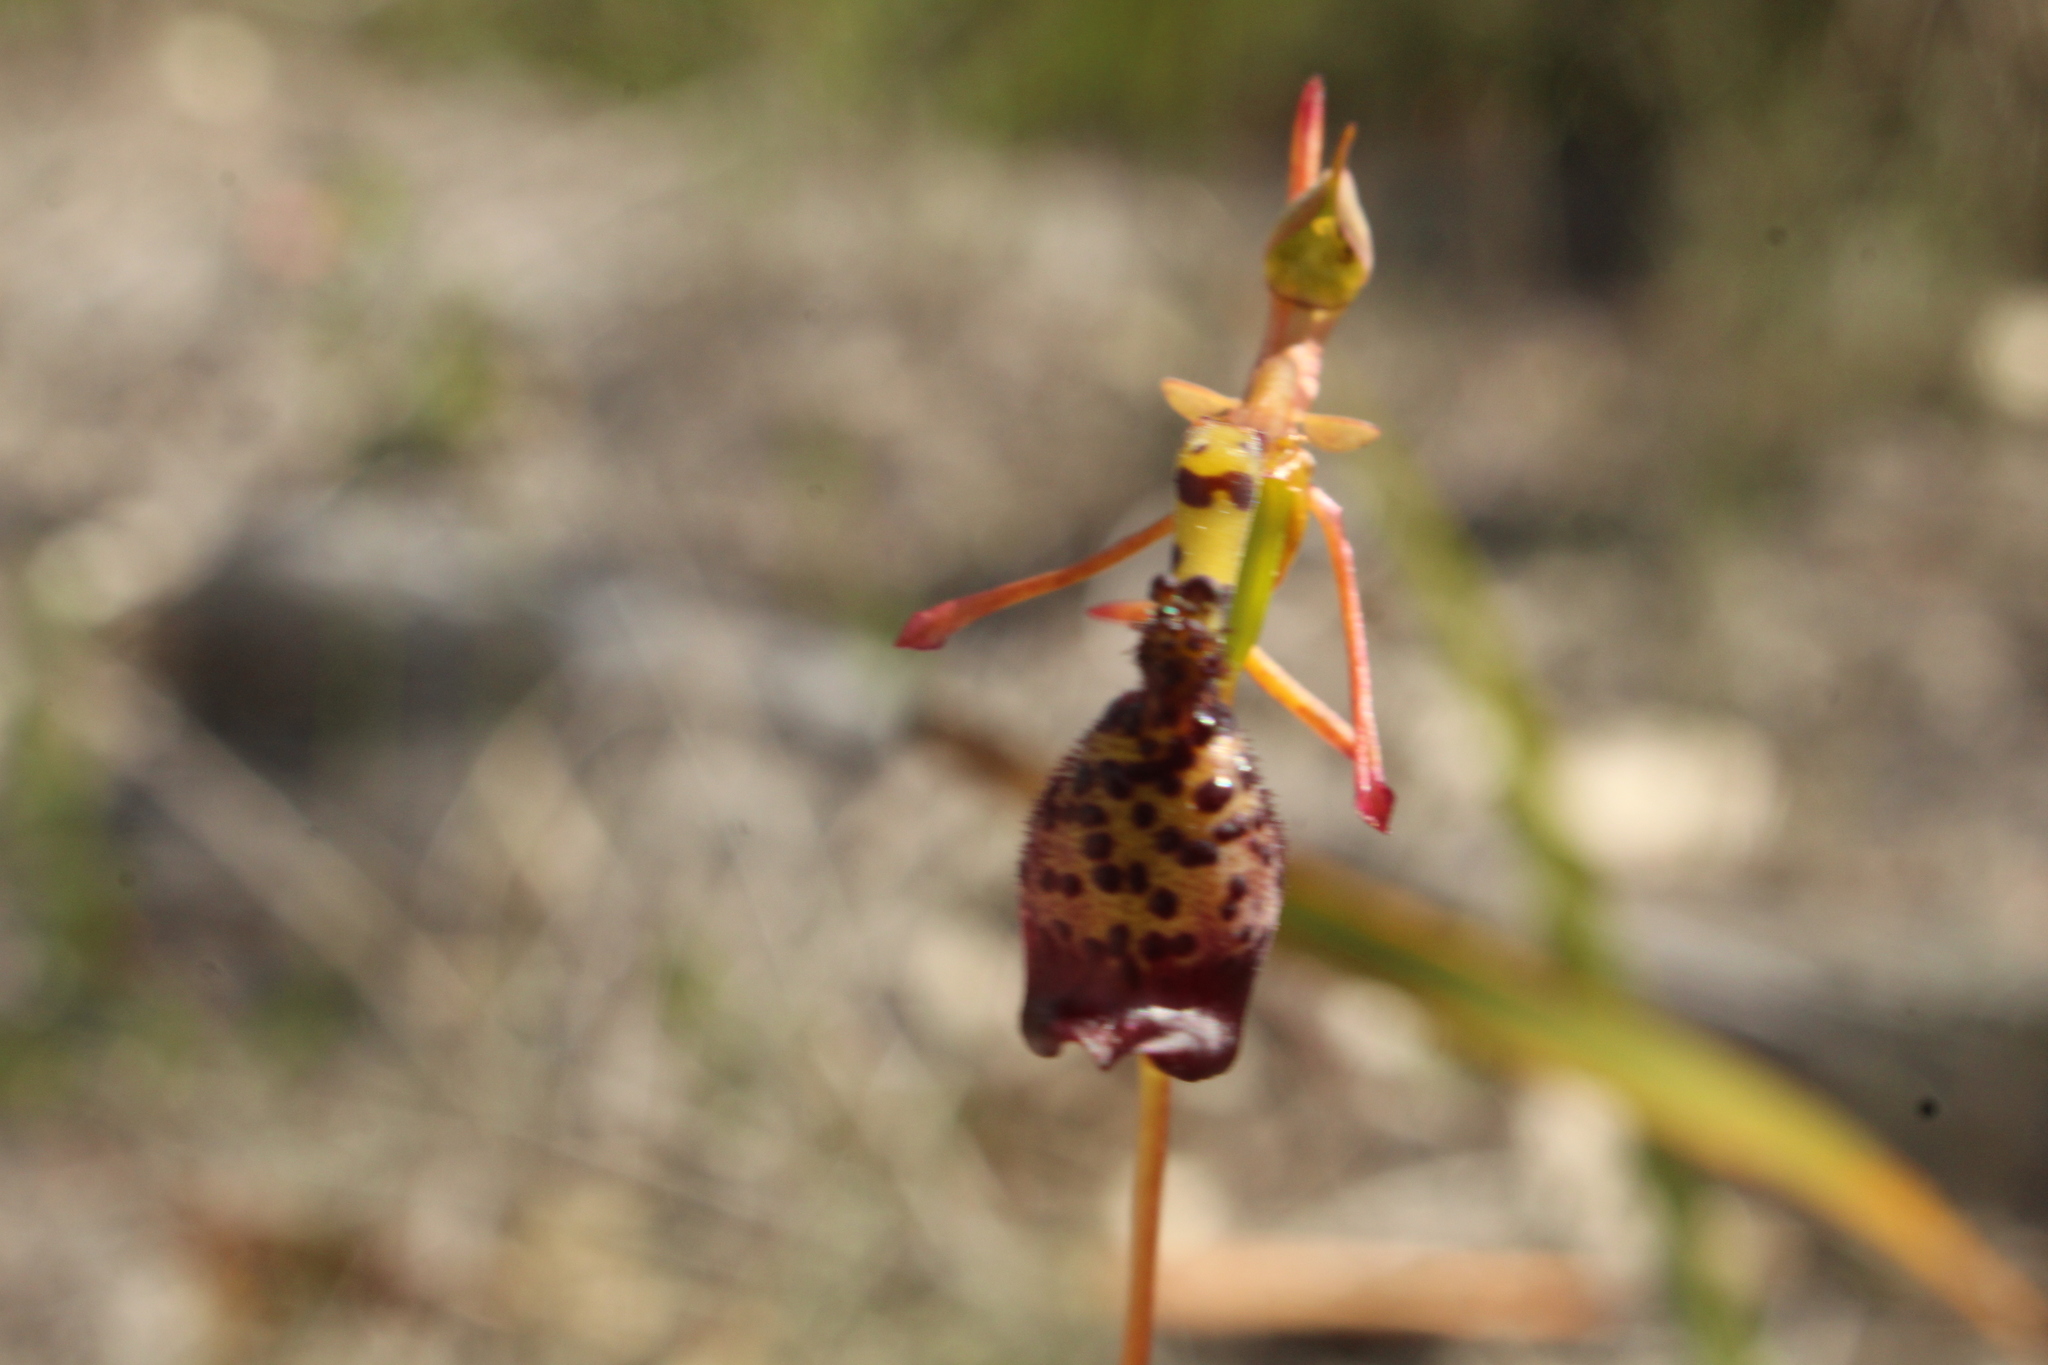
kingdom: Plantae
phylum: Tracheophyta
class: Liliopsida
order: Asparagales
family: Orchidaceae
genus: Drakaea
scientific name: Drakaea livida
